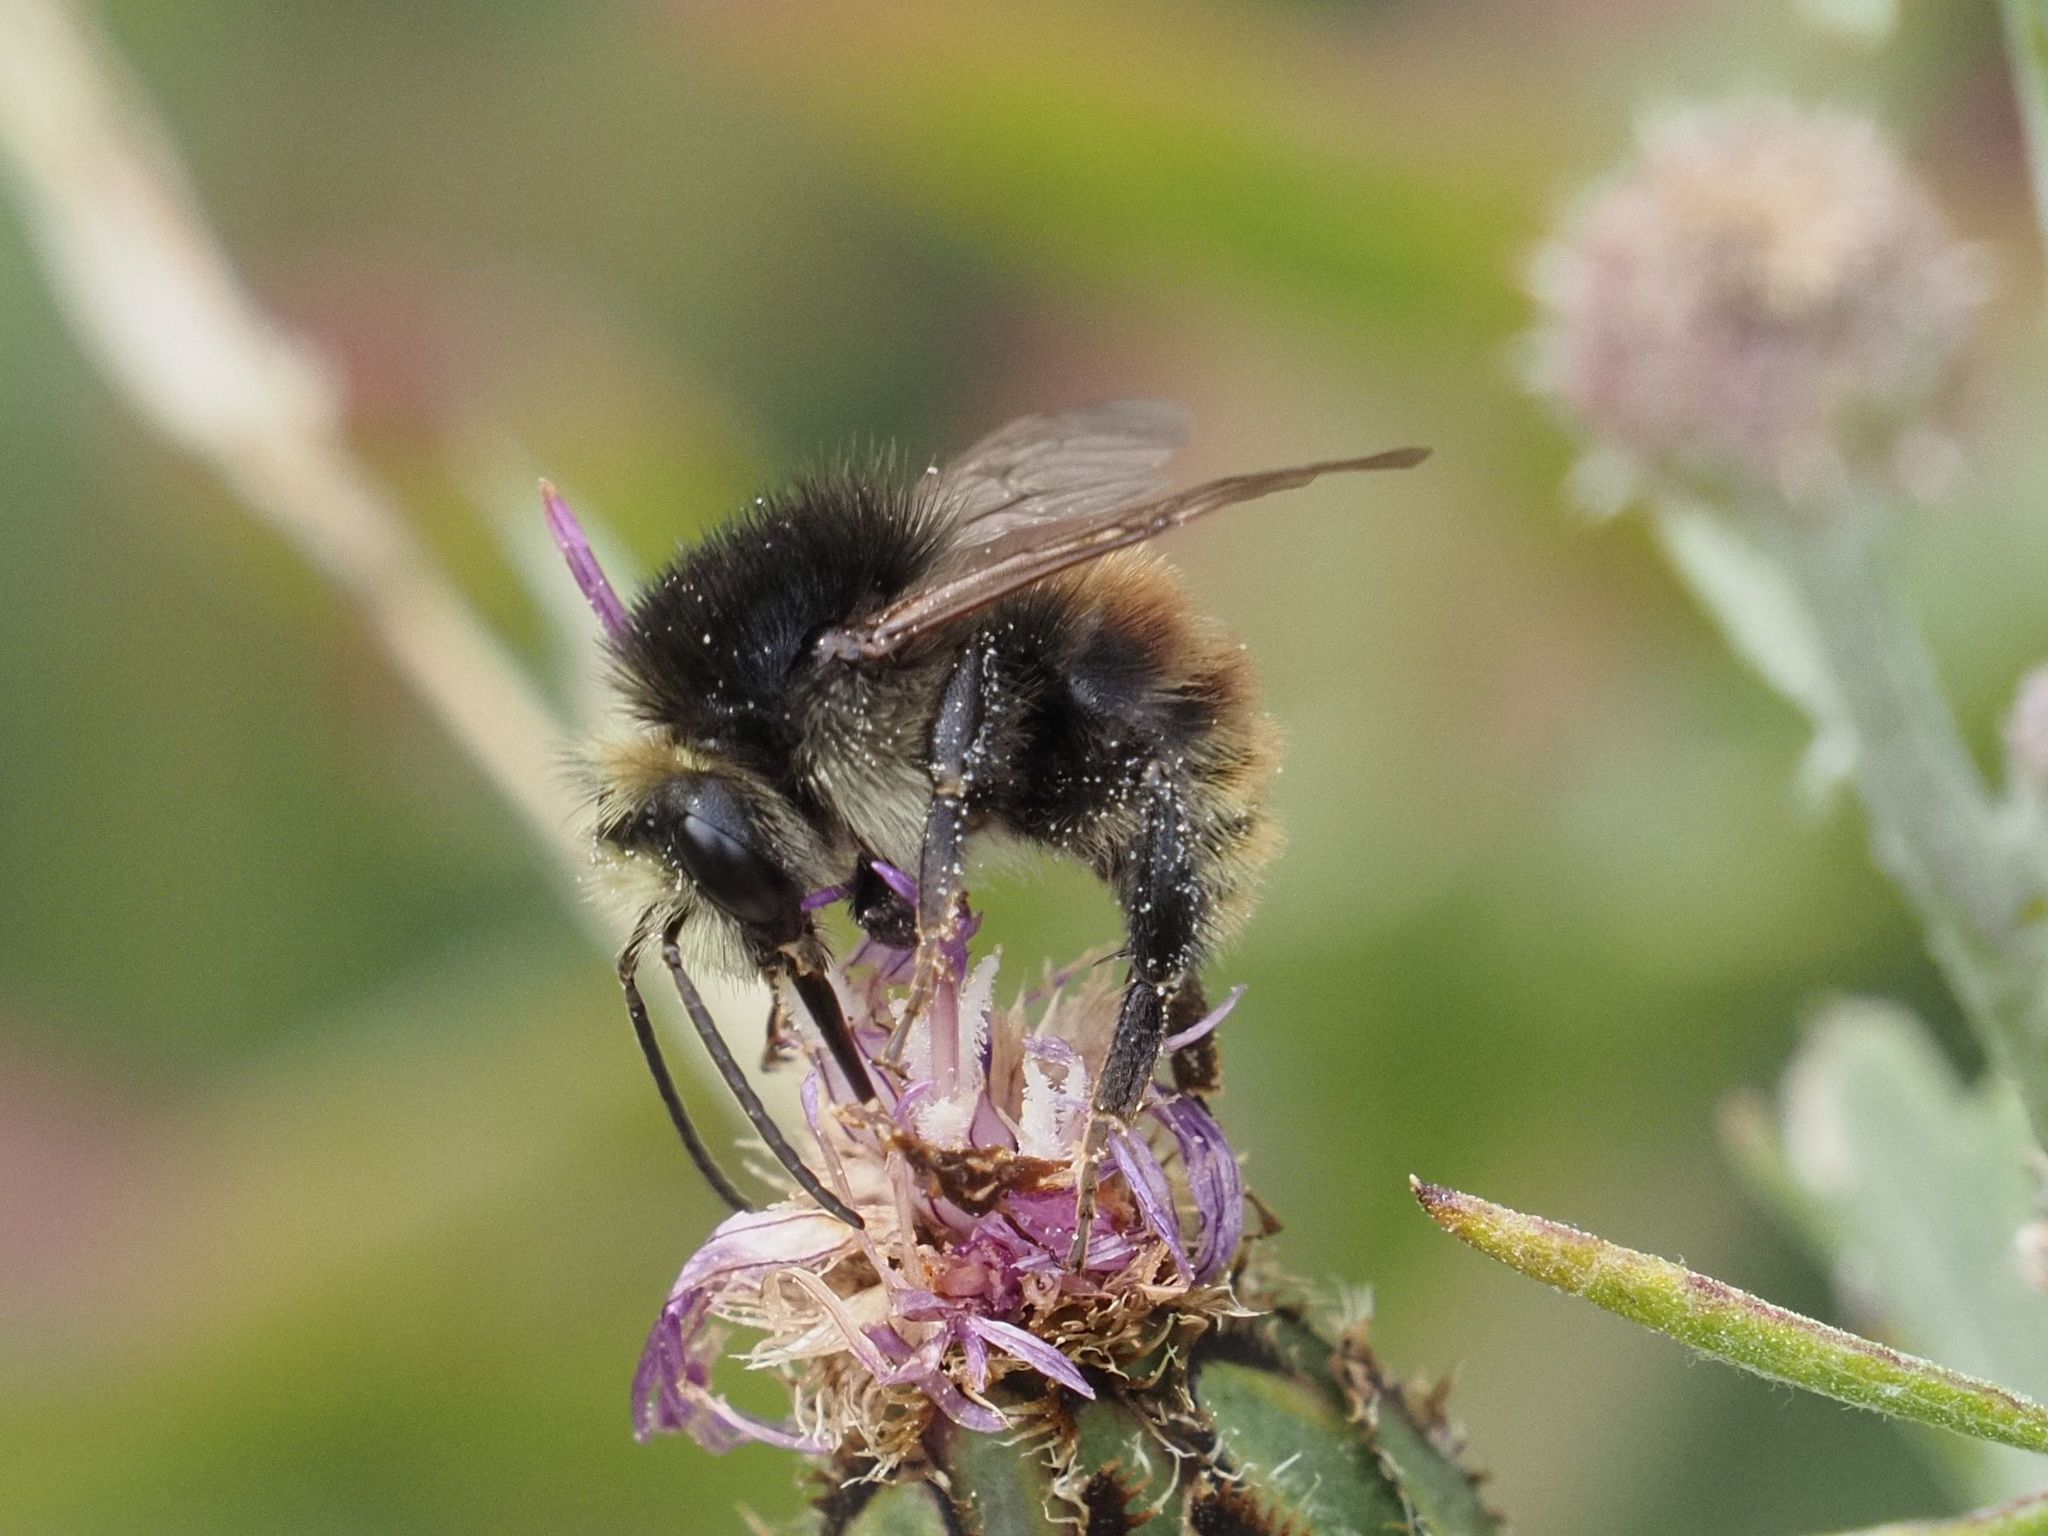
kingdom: Animalia
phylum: Arthropoda
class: Insecta
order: Hymenoptera
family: Apidae
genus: Bombus
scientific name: Bombus humilis
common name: Brown-banded carder-bee
